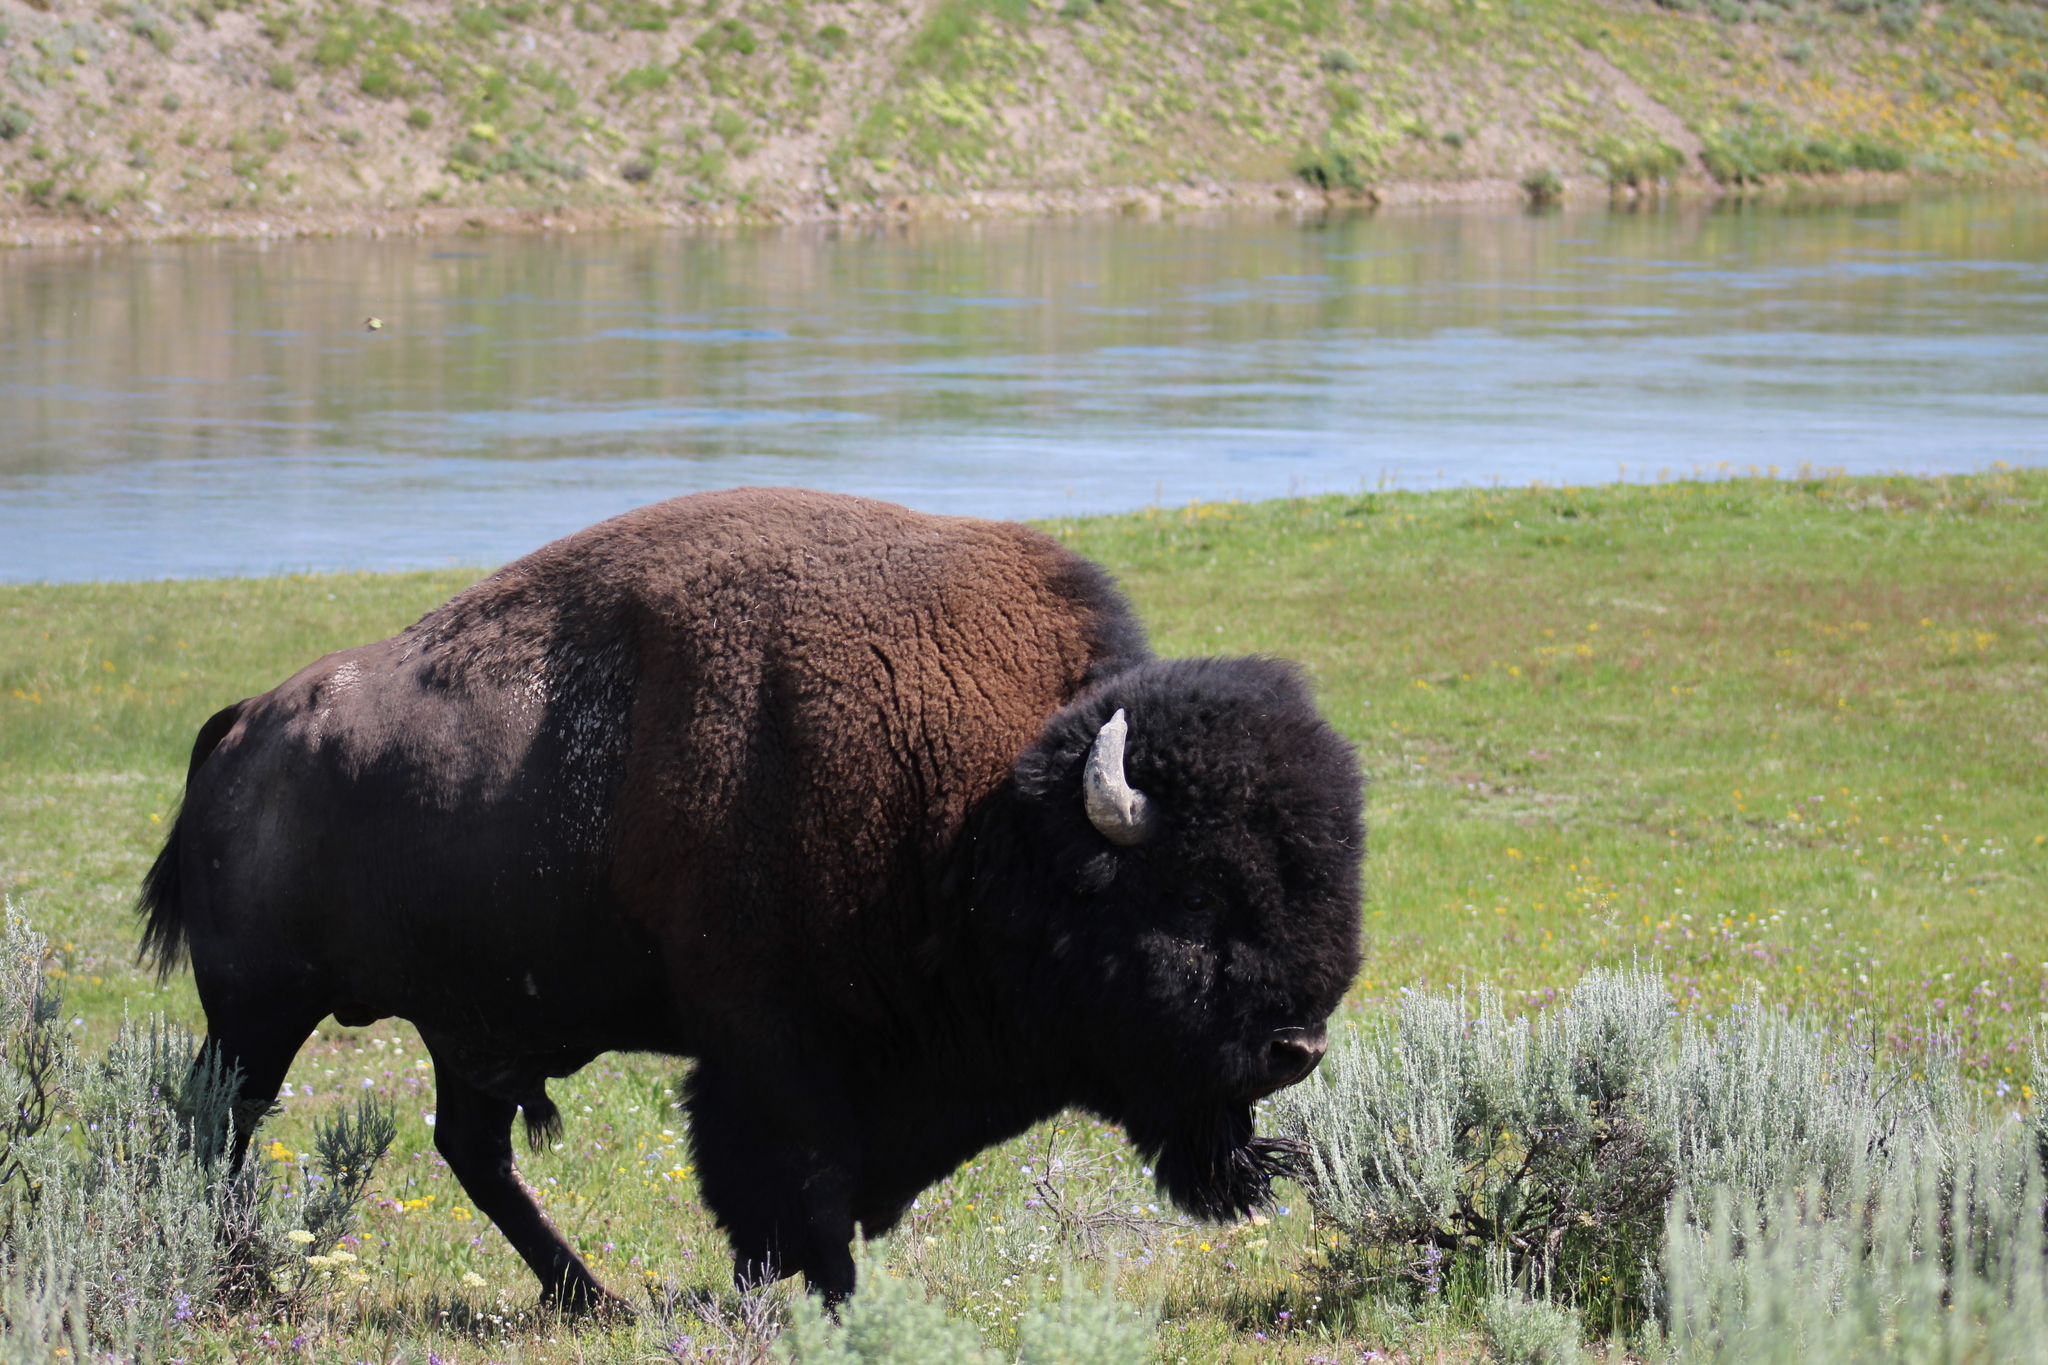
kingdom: Animalia
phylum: Chordata
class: Mammalia
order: Artiodactyla
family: Bovidae
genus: Bison
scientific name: Bison bison
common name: American bison
